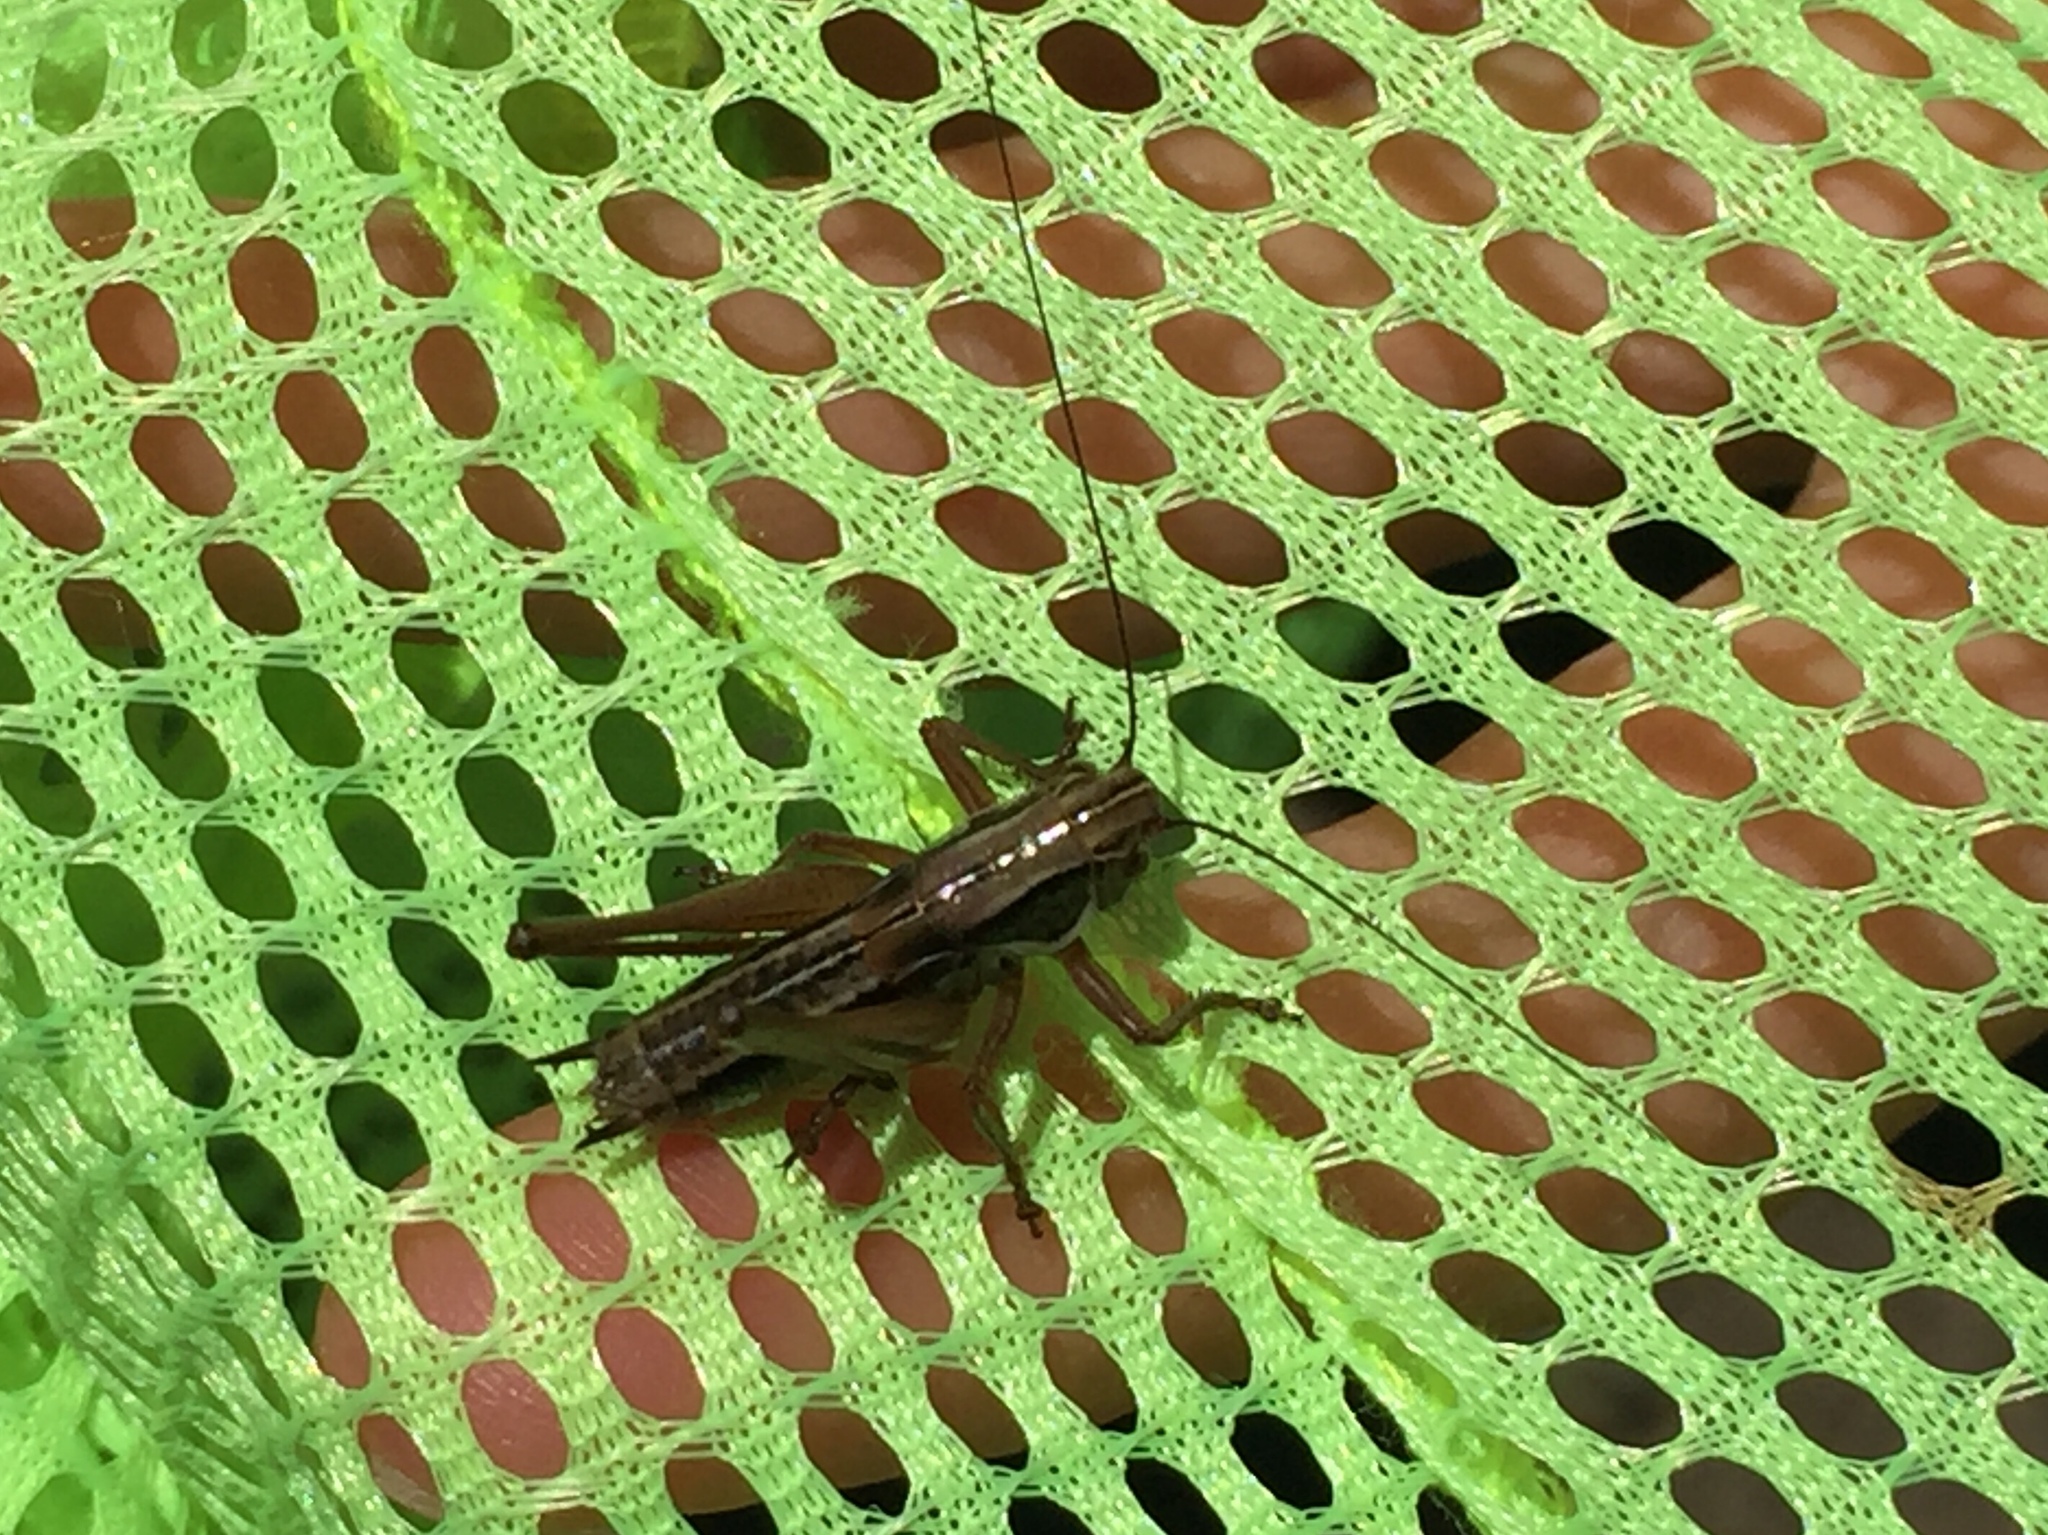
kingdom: Animalia
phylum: Arthropoda
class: Insecta
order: Orthoptera
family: Tettigoniidae
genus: Roeseliana
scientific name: Roeseliana roeselii
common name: Roesel's bush cricket
